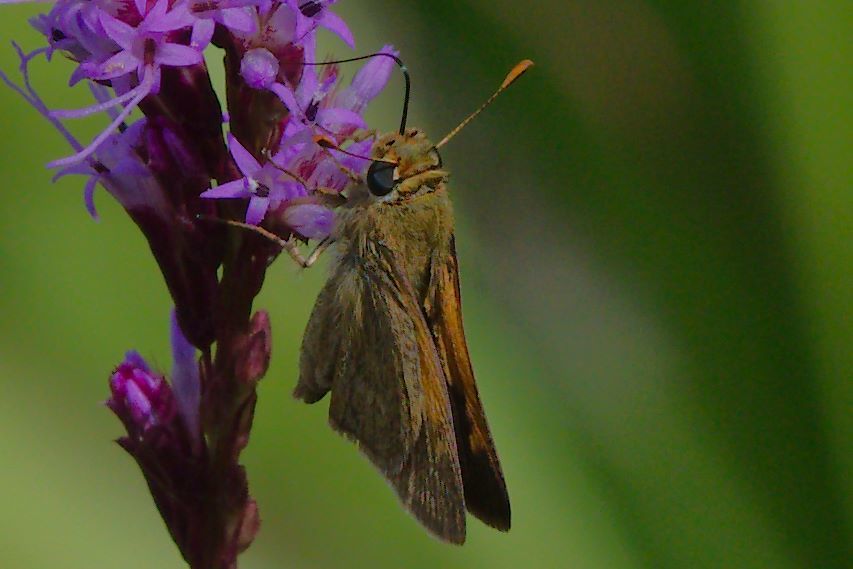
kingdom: Animalia
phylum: Arthropoda
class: Insecta
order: Lepidoptera
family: Hesperiidae
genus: Polites
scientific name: Polites themistocles
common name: Tawny-edged skipper
